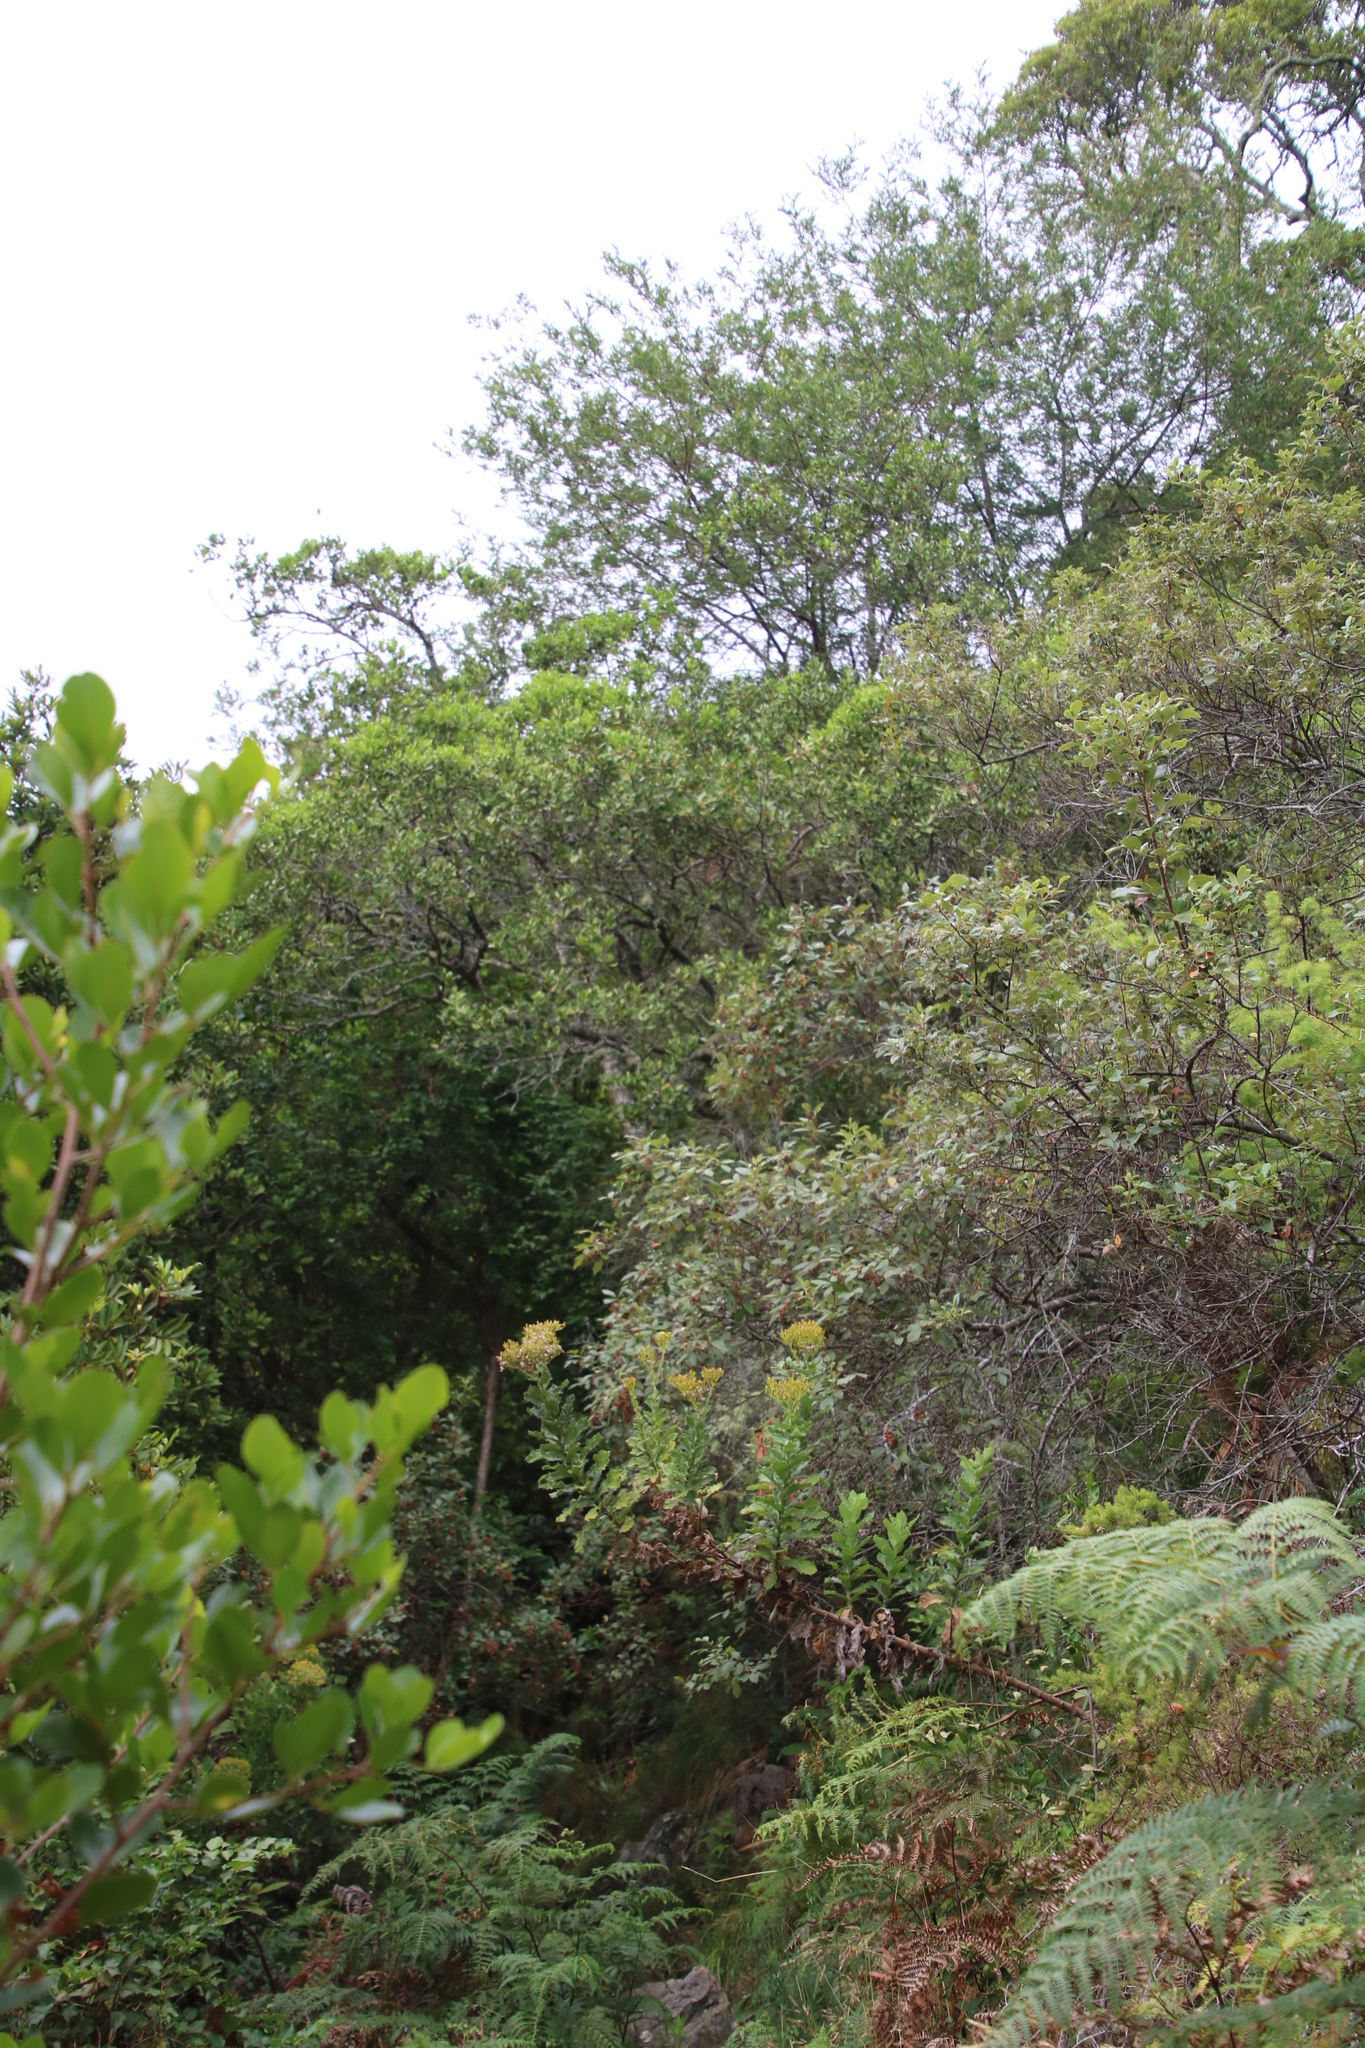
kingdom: Plantae
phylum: Tracheophyta
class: Magnoliopsida
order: Asterales
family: Asteraceae
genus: Senecio
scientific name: Senecio rigidus
